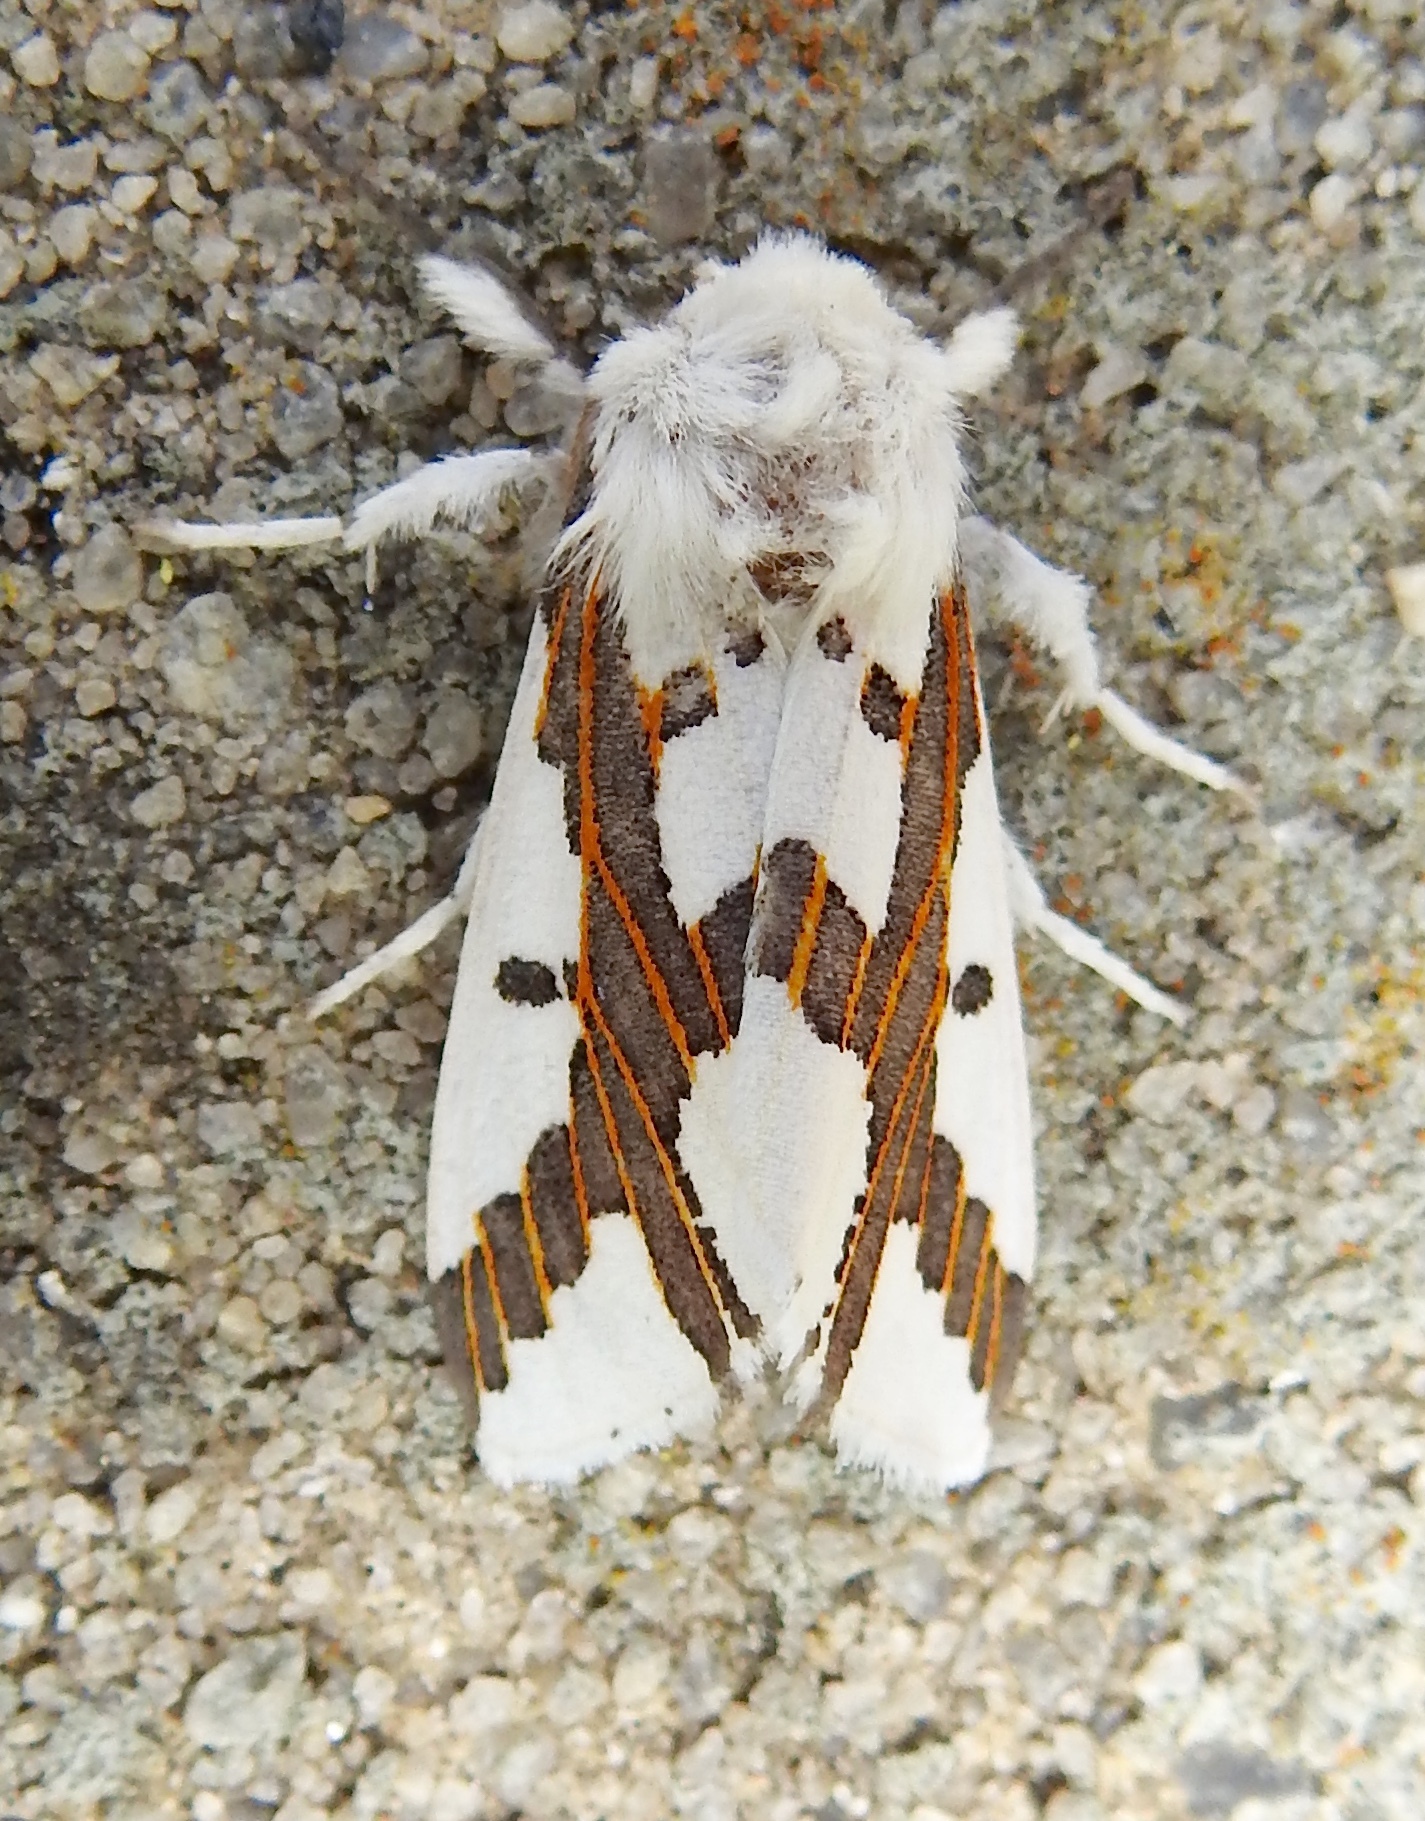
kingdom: Animalia
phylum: Arthropoda
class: Insecta
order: Lepidoptera
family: Erebidae
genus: Euerythra
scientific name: Euerythra phasma
